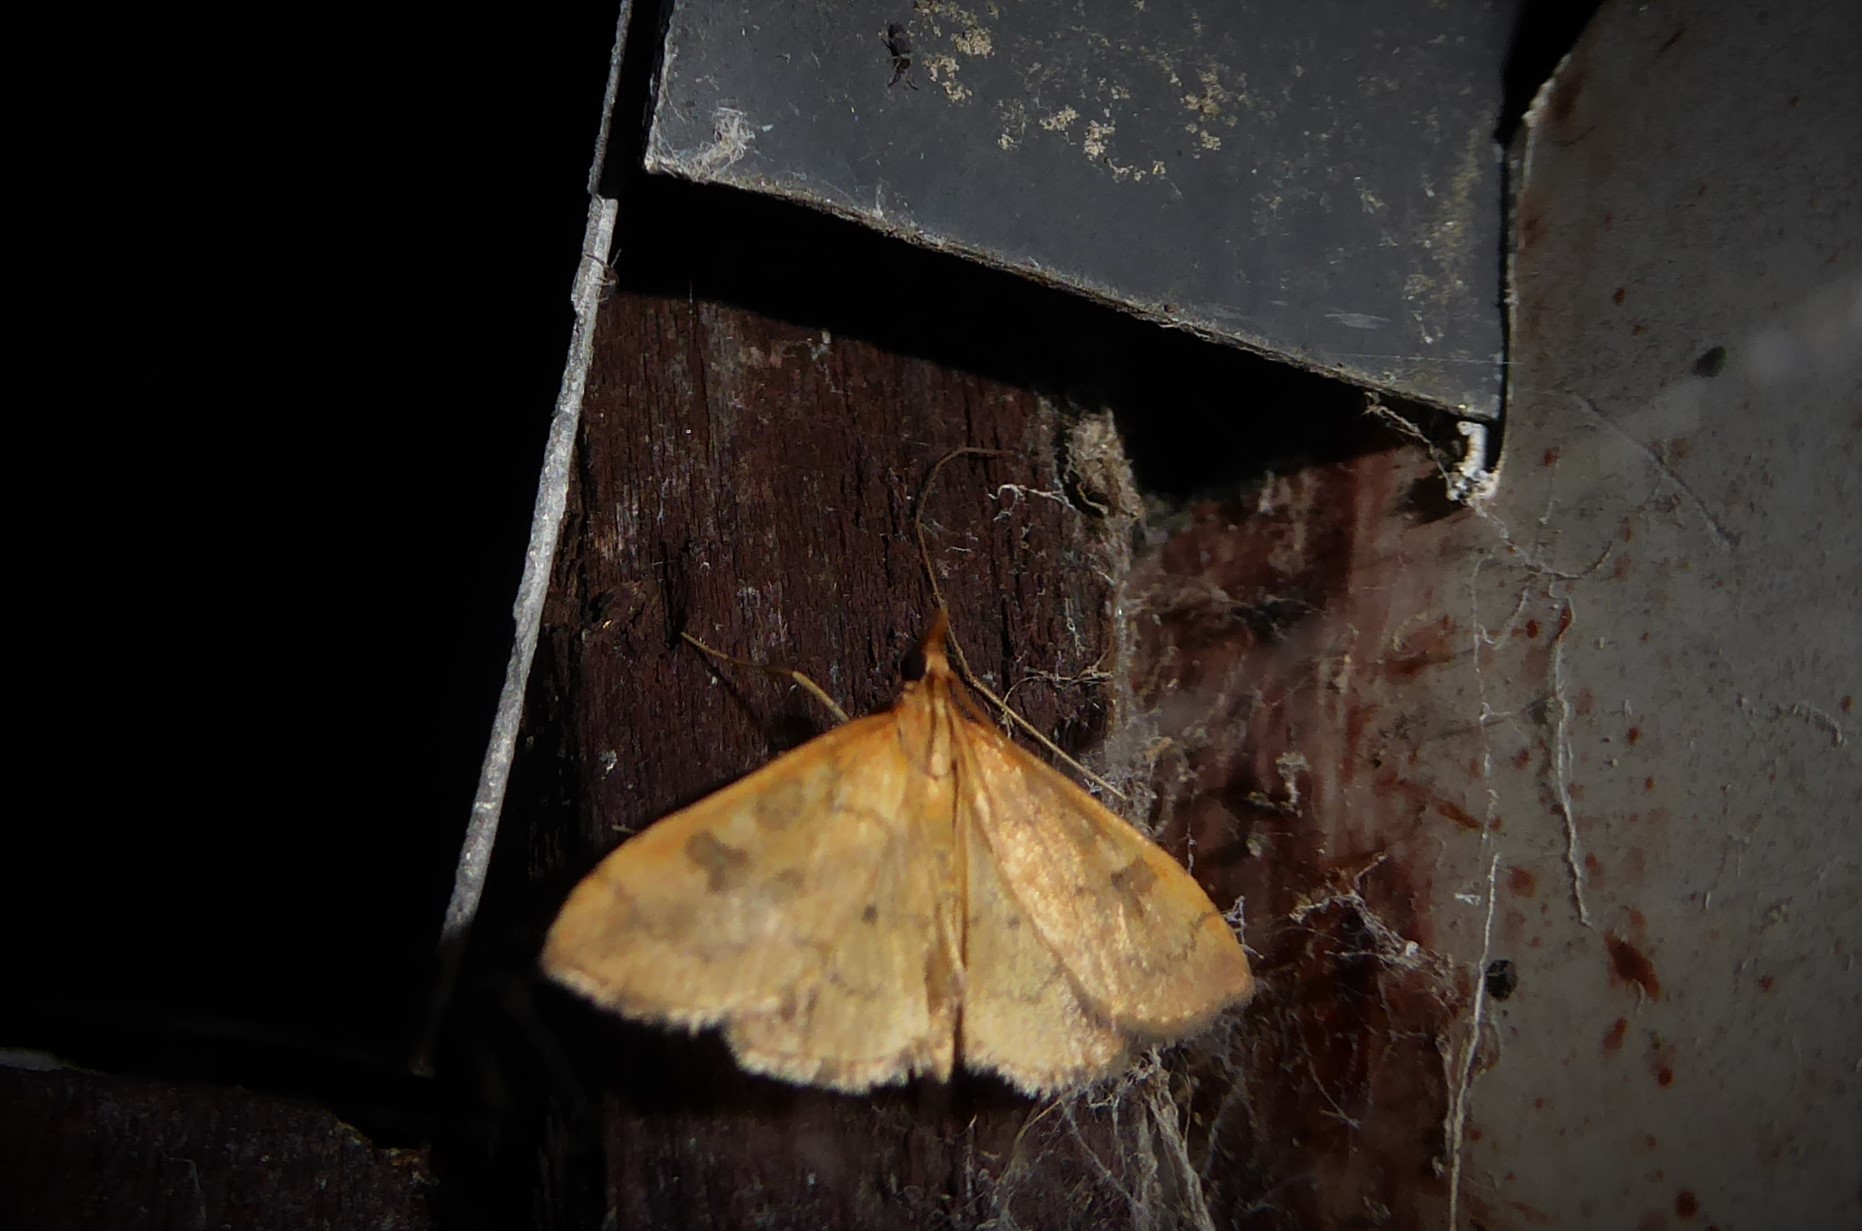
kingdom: Animalia
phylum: Arthropoda
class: Insecta
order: Lepidoptera
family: Crambidae
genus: Udea
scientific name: Udea Mnesictena flavidalis
